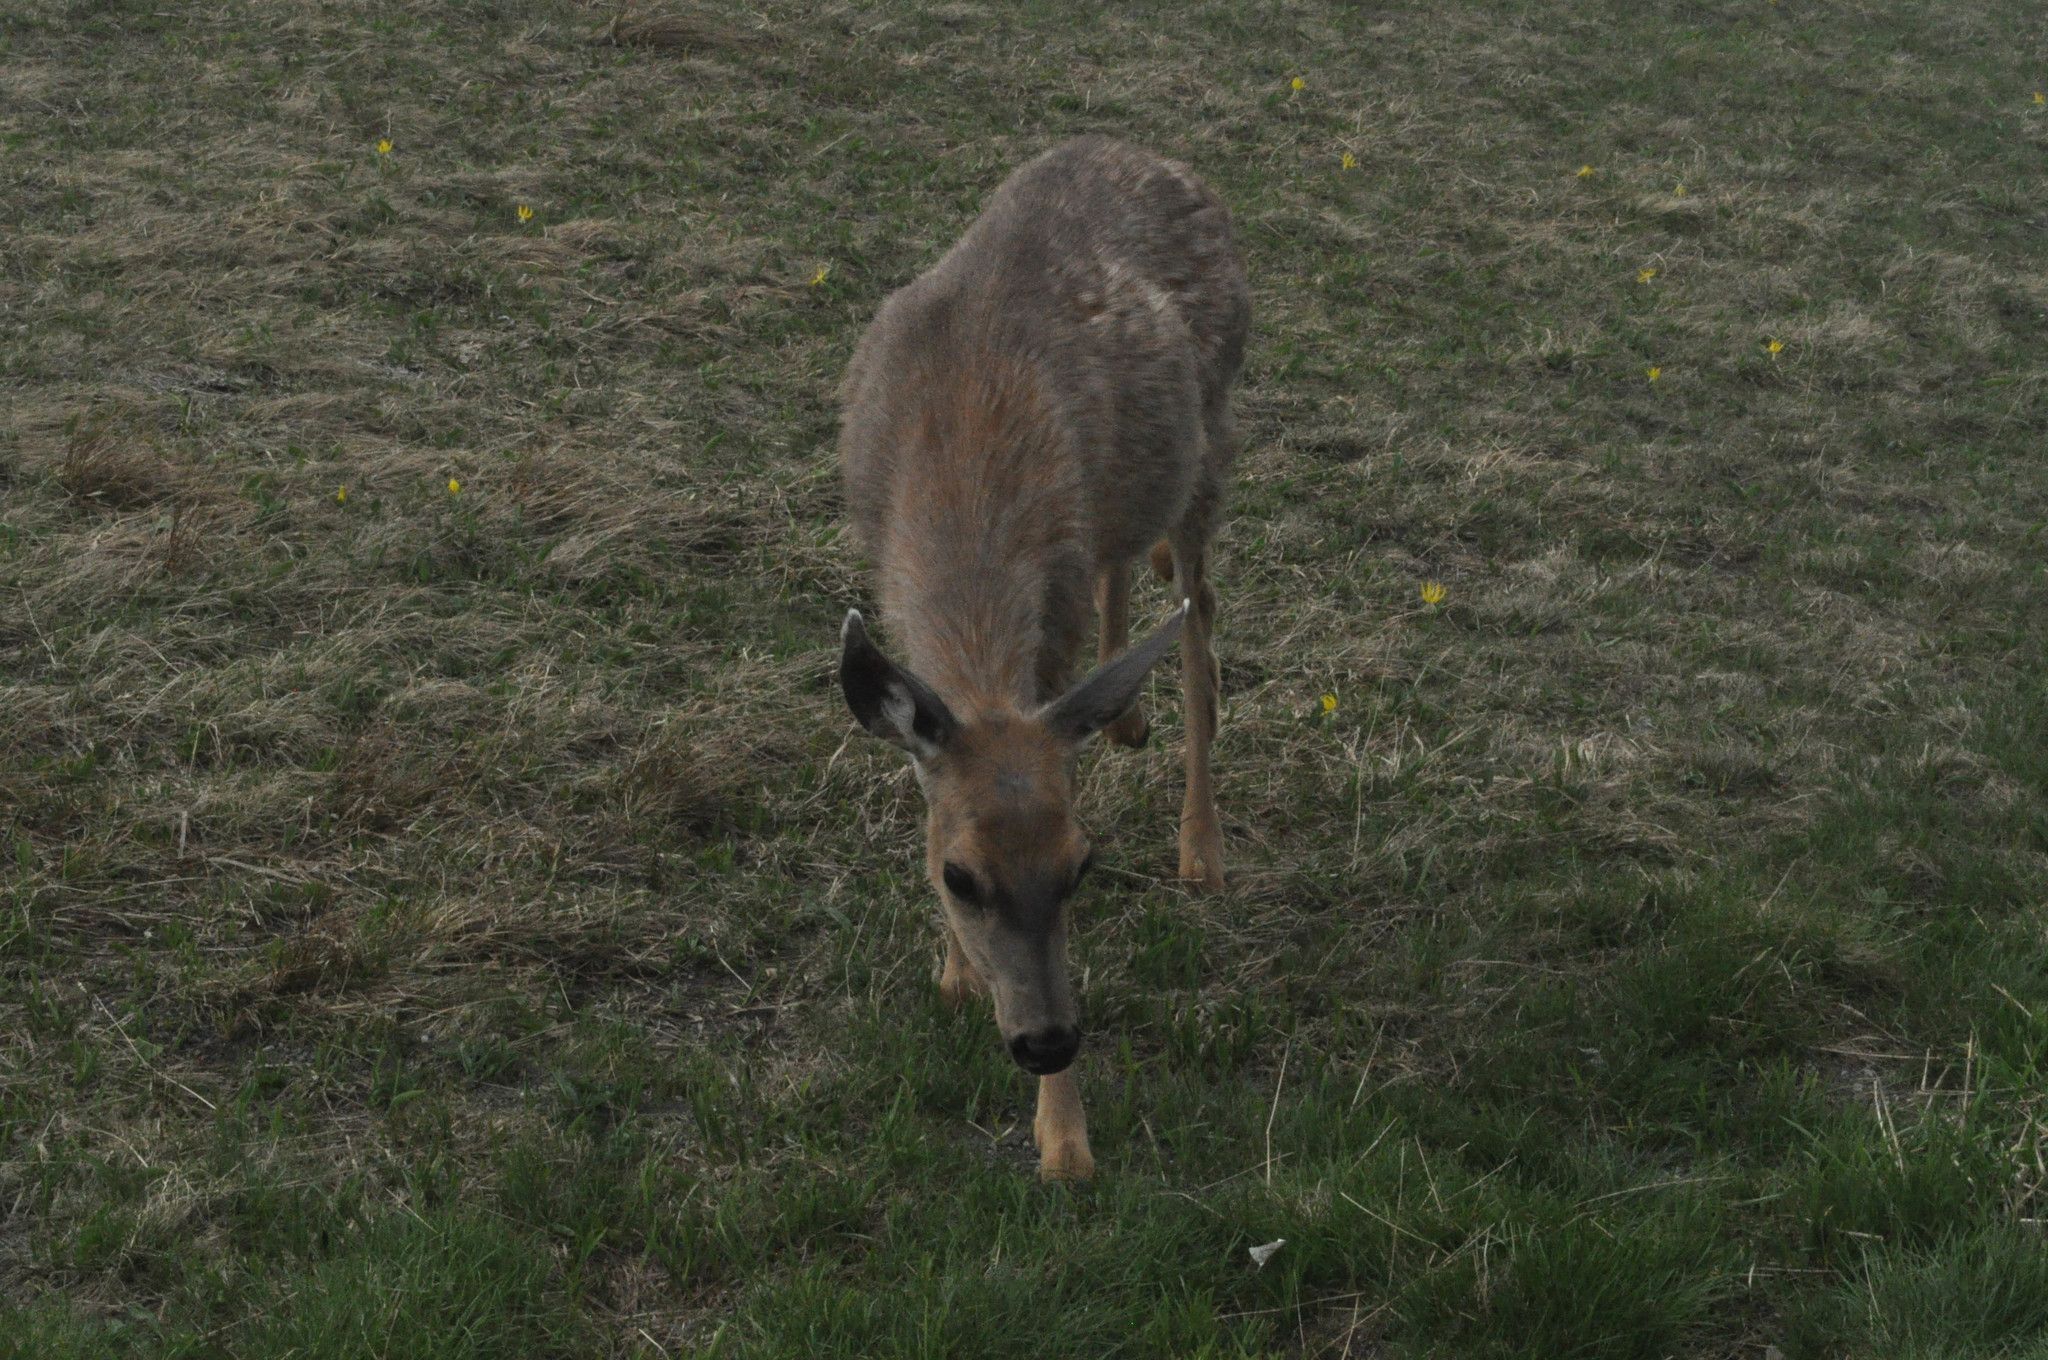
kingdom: Animalia
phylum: Chordata
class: Mammalia
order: Artiodactyla
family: Cervidae
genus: Odocoileus
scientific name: Odocoileus hemionus
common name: Mule deer
